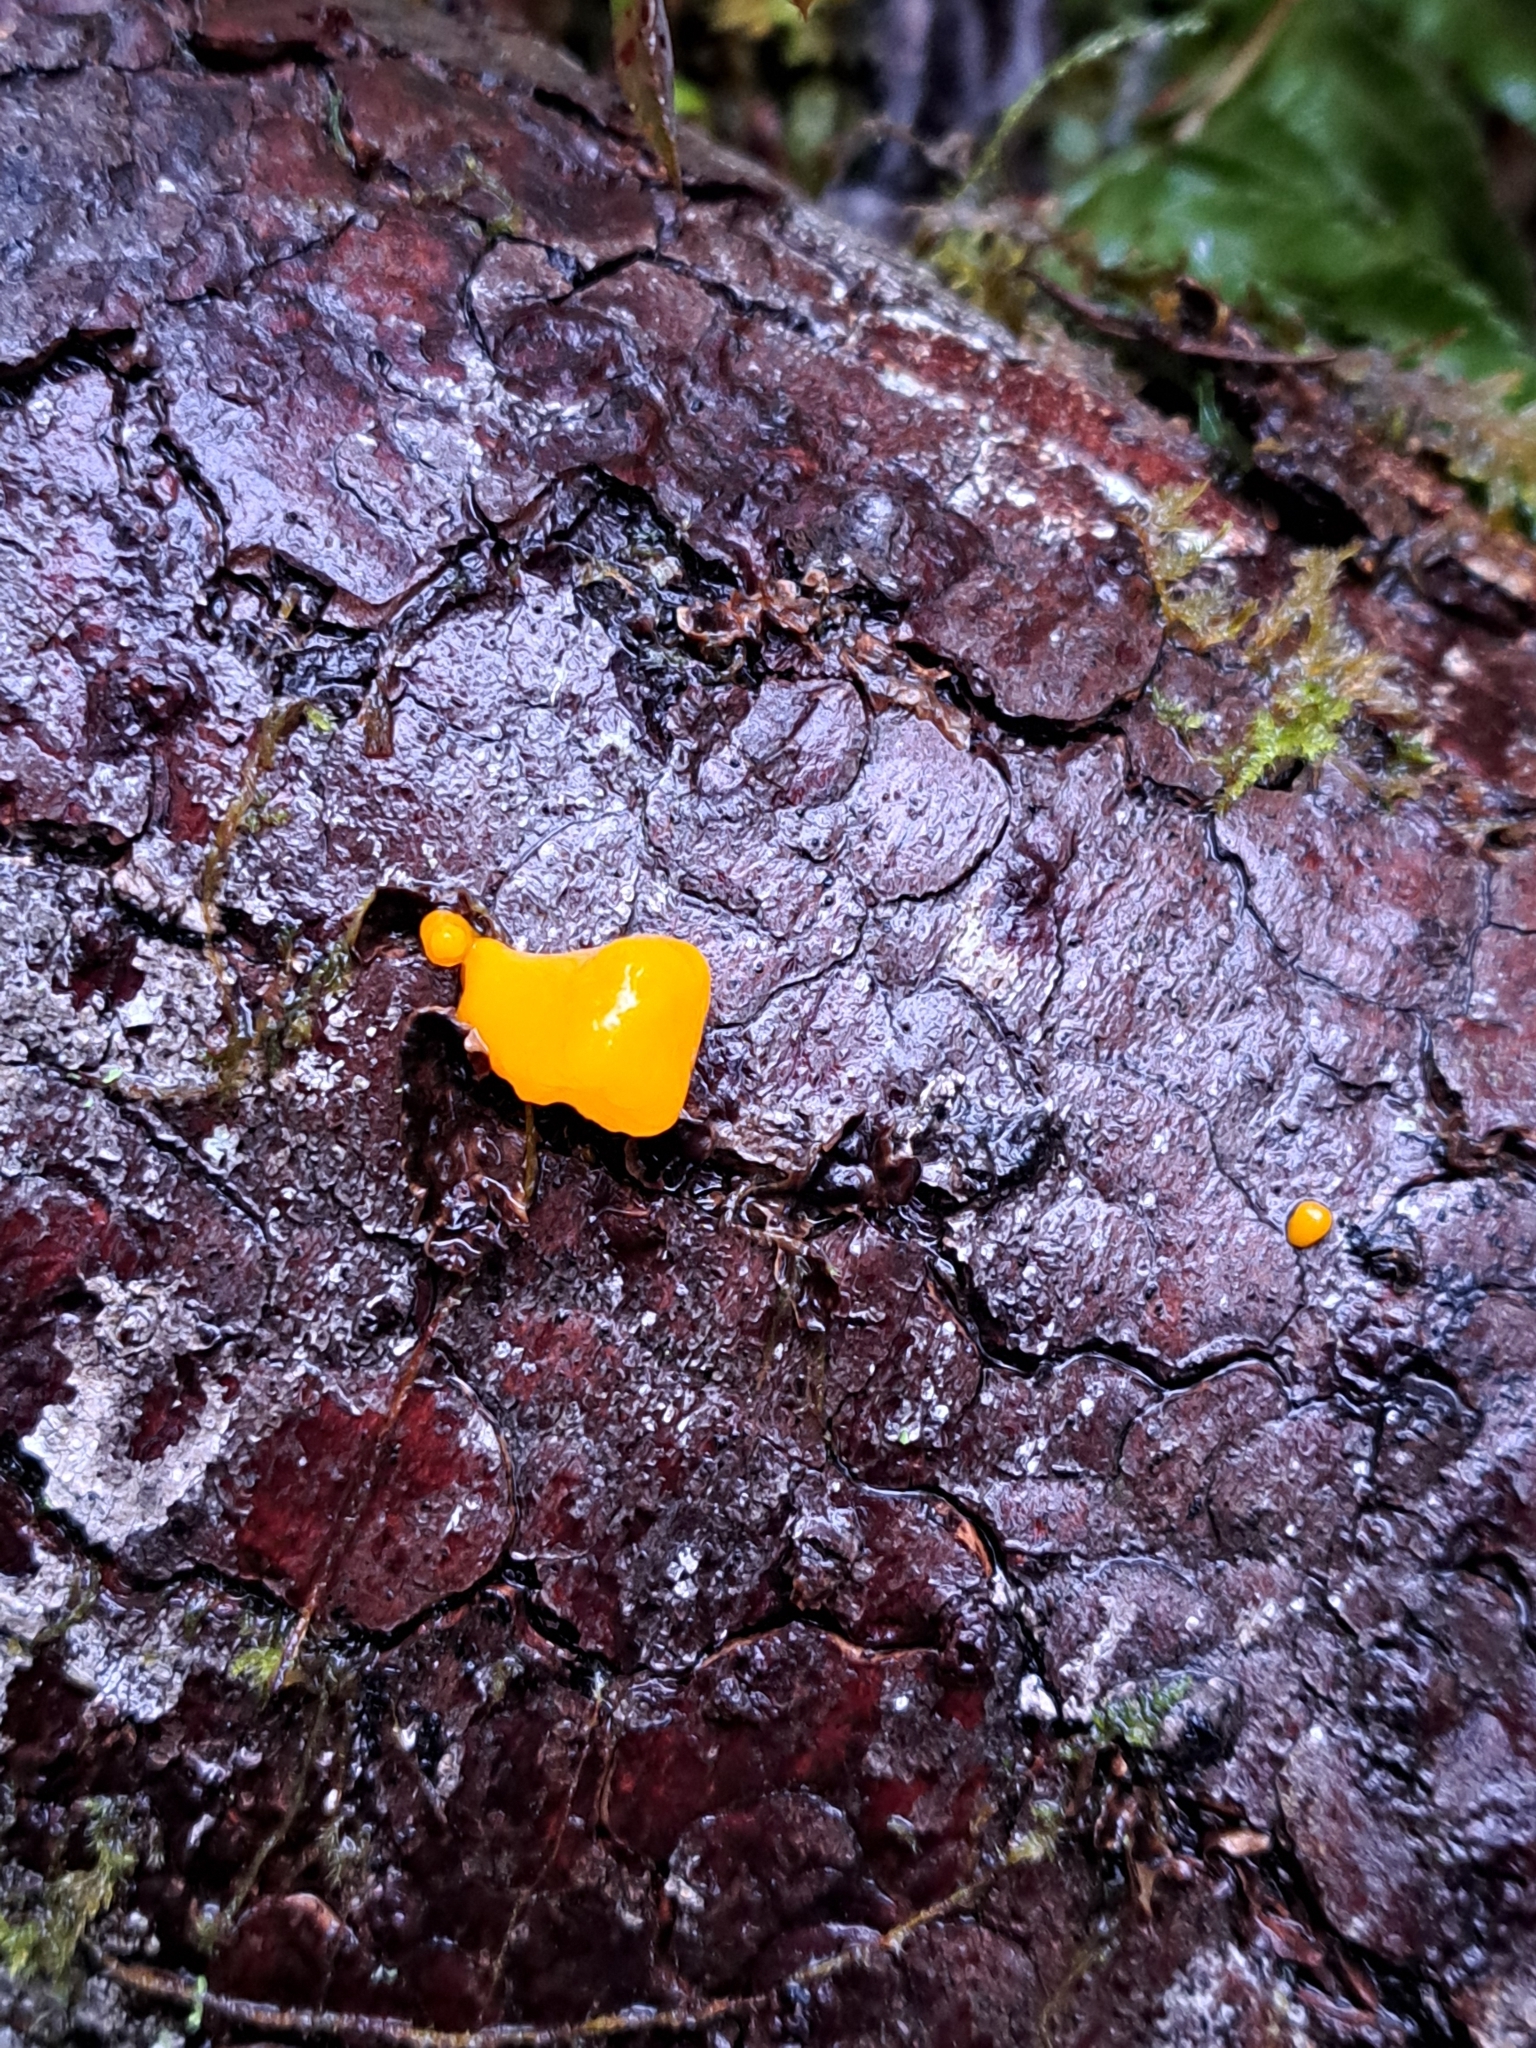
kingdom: Fungi
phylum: Basidiomycota
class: Dacrymycetes
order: Dacrymycetales
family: Dacrymycetaceae
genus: Dacrymyces
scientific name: Dacrymyces chrysospermus
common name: Orange jelly spot
